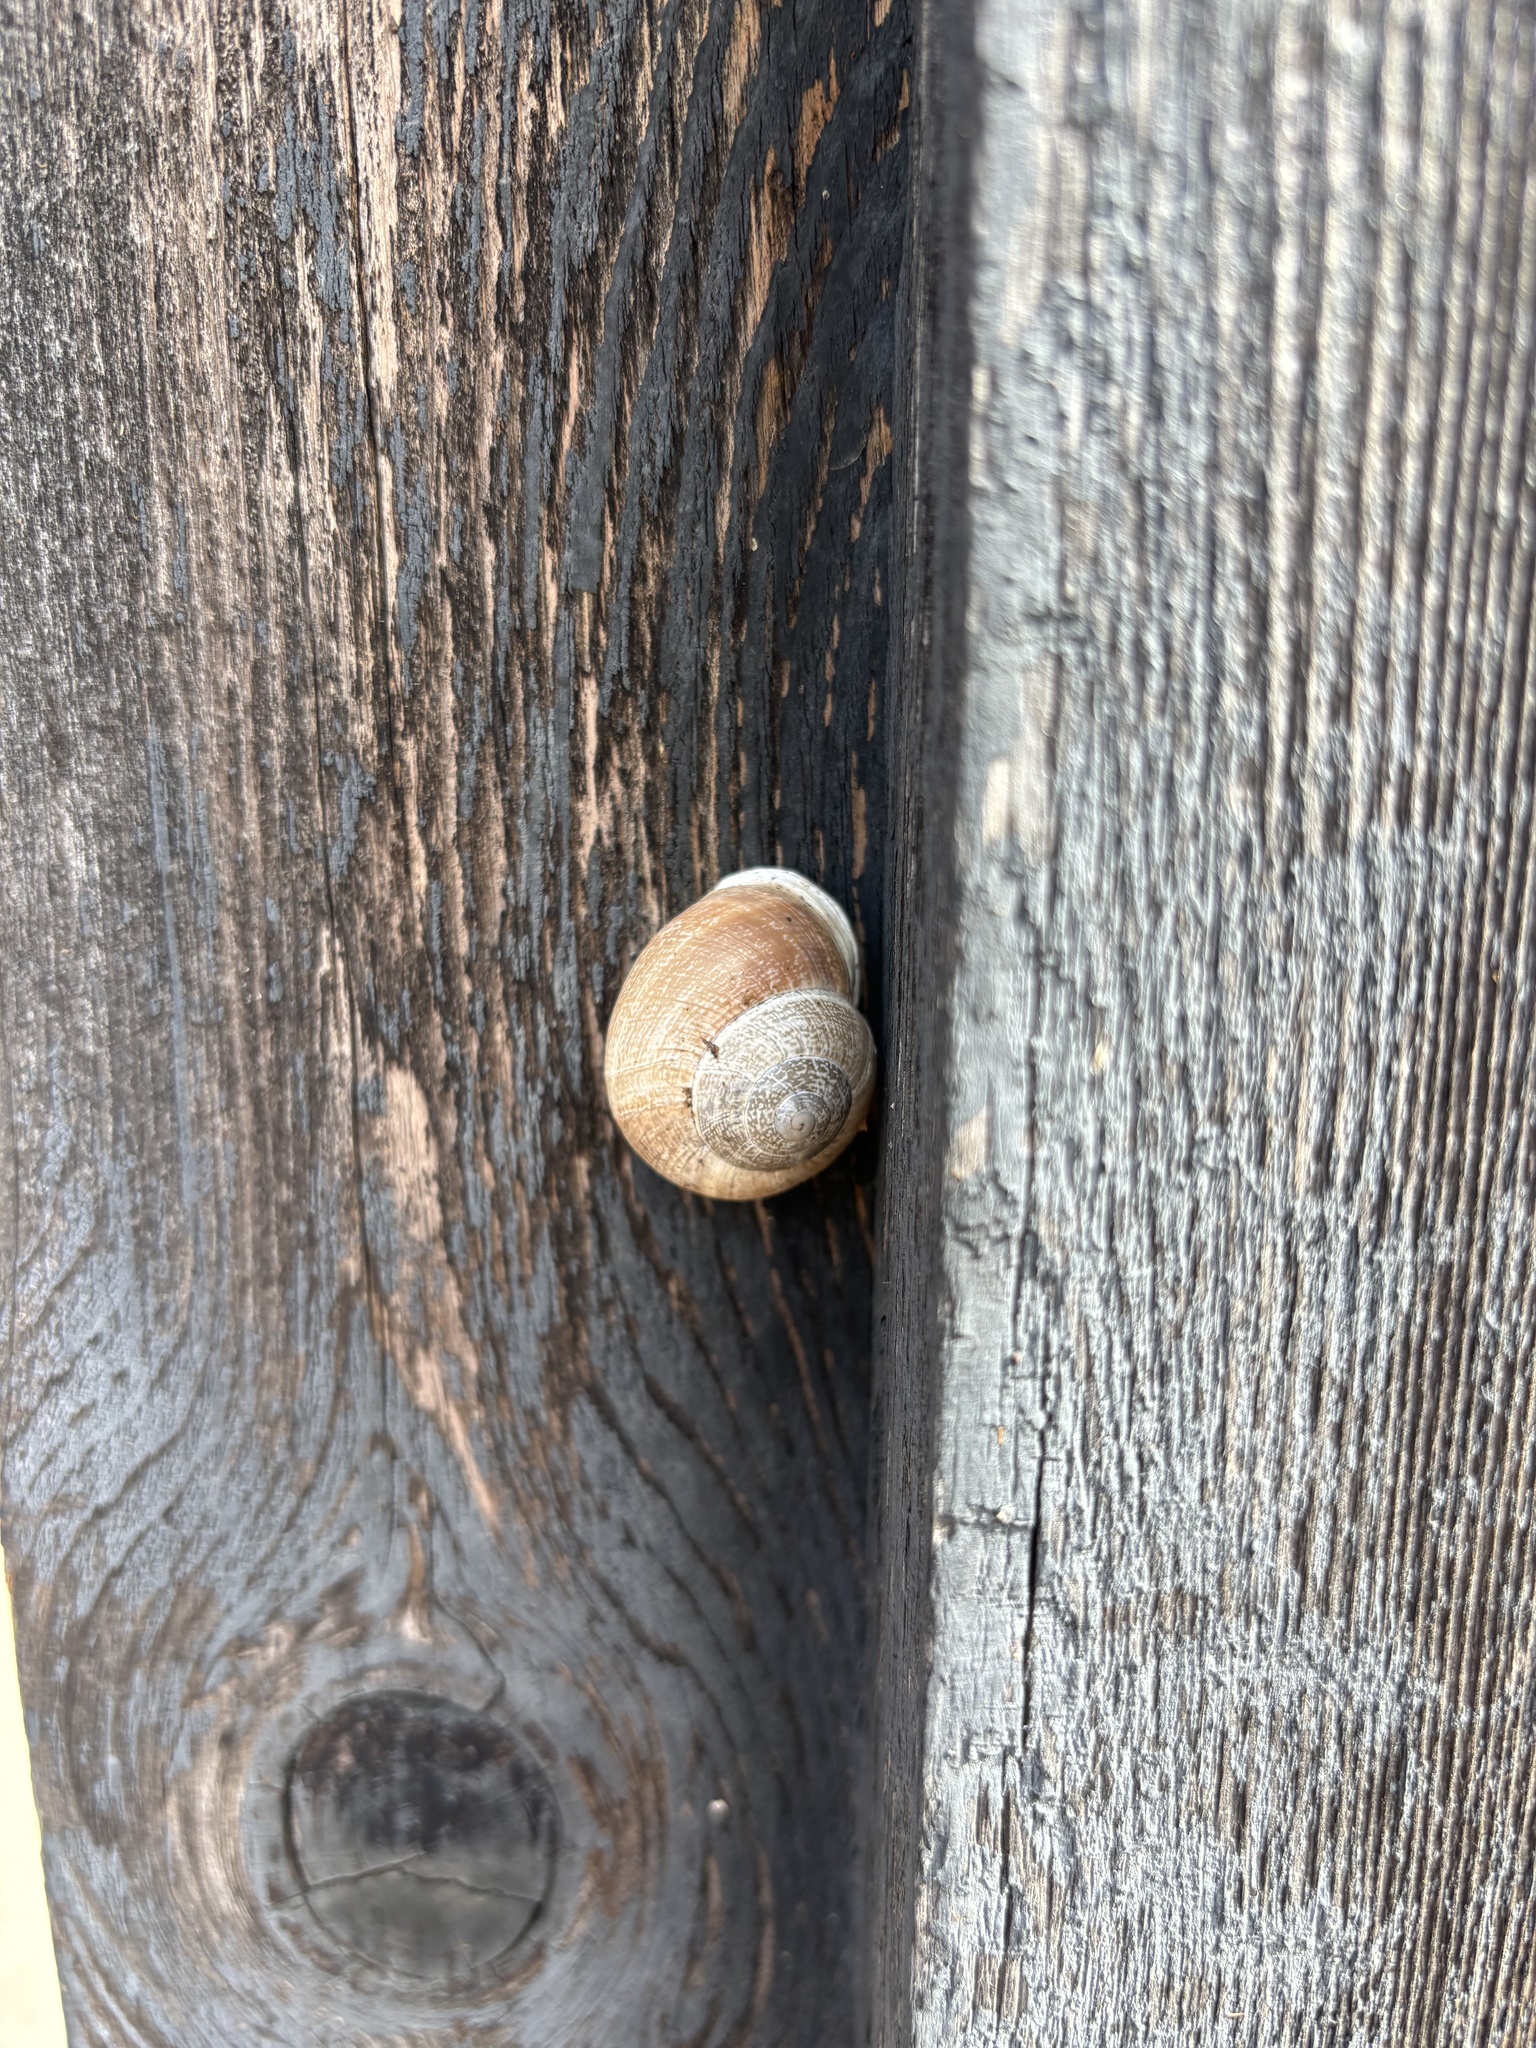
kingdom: Animalia
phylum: Mollusca
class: Gastropoda
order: Stylommatophora
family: Helicidae
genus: Otala
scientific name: Otala lactea
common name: Milk snail
